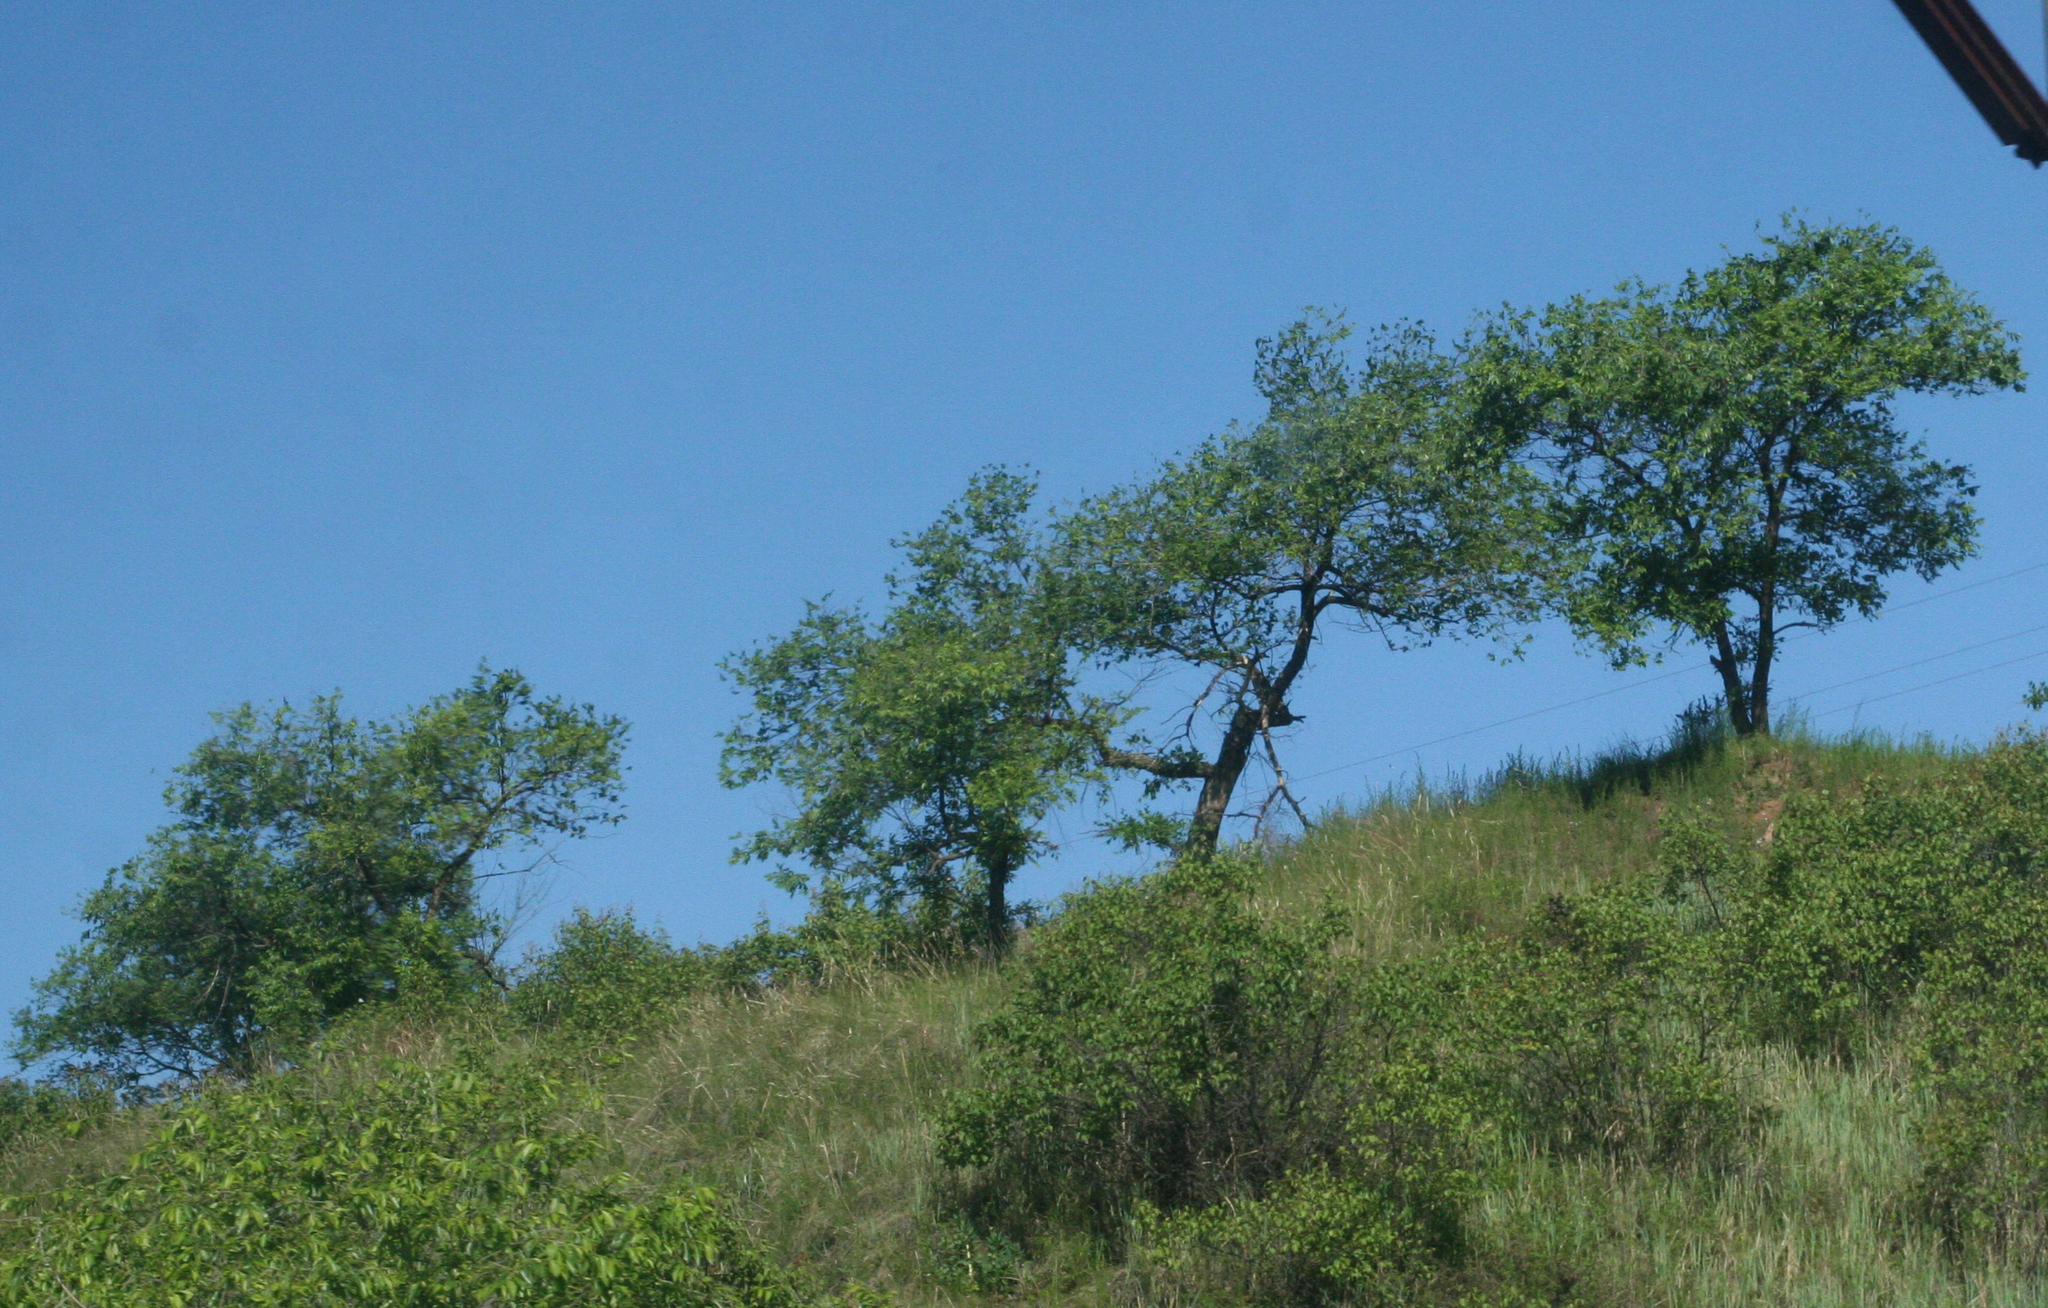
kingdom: Plantae
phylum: Tracheophyta
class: Magnoliopsida
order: Rosales
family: Ulmaceae
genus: Ulmus
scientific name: Ulmus pumila
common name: Siberian elm
